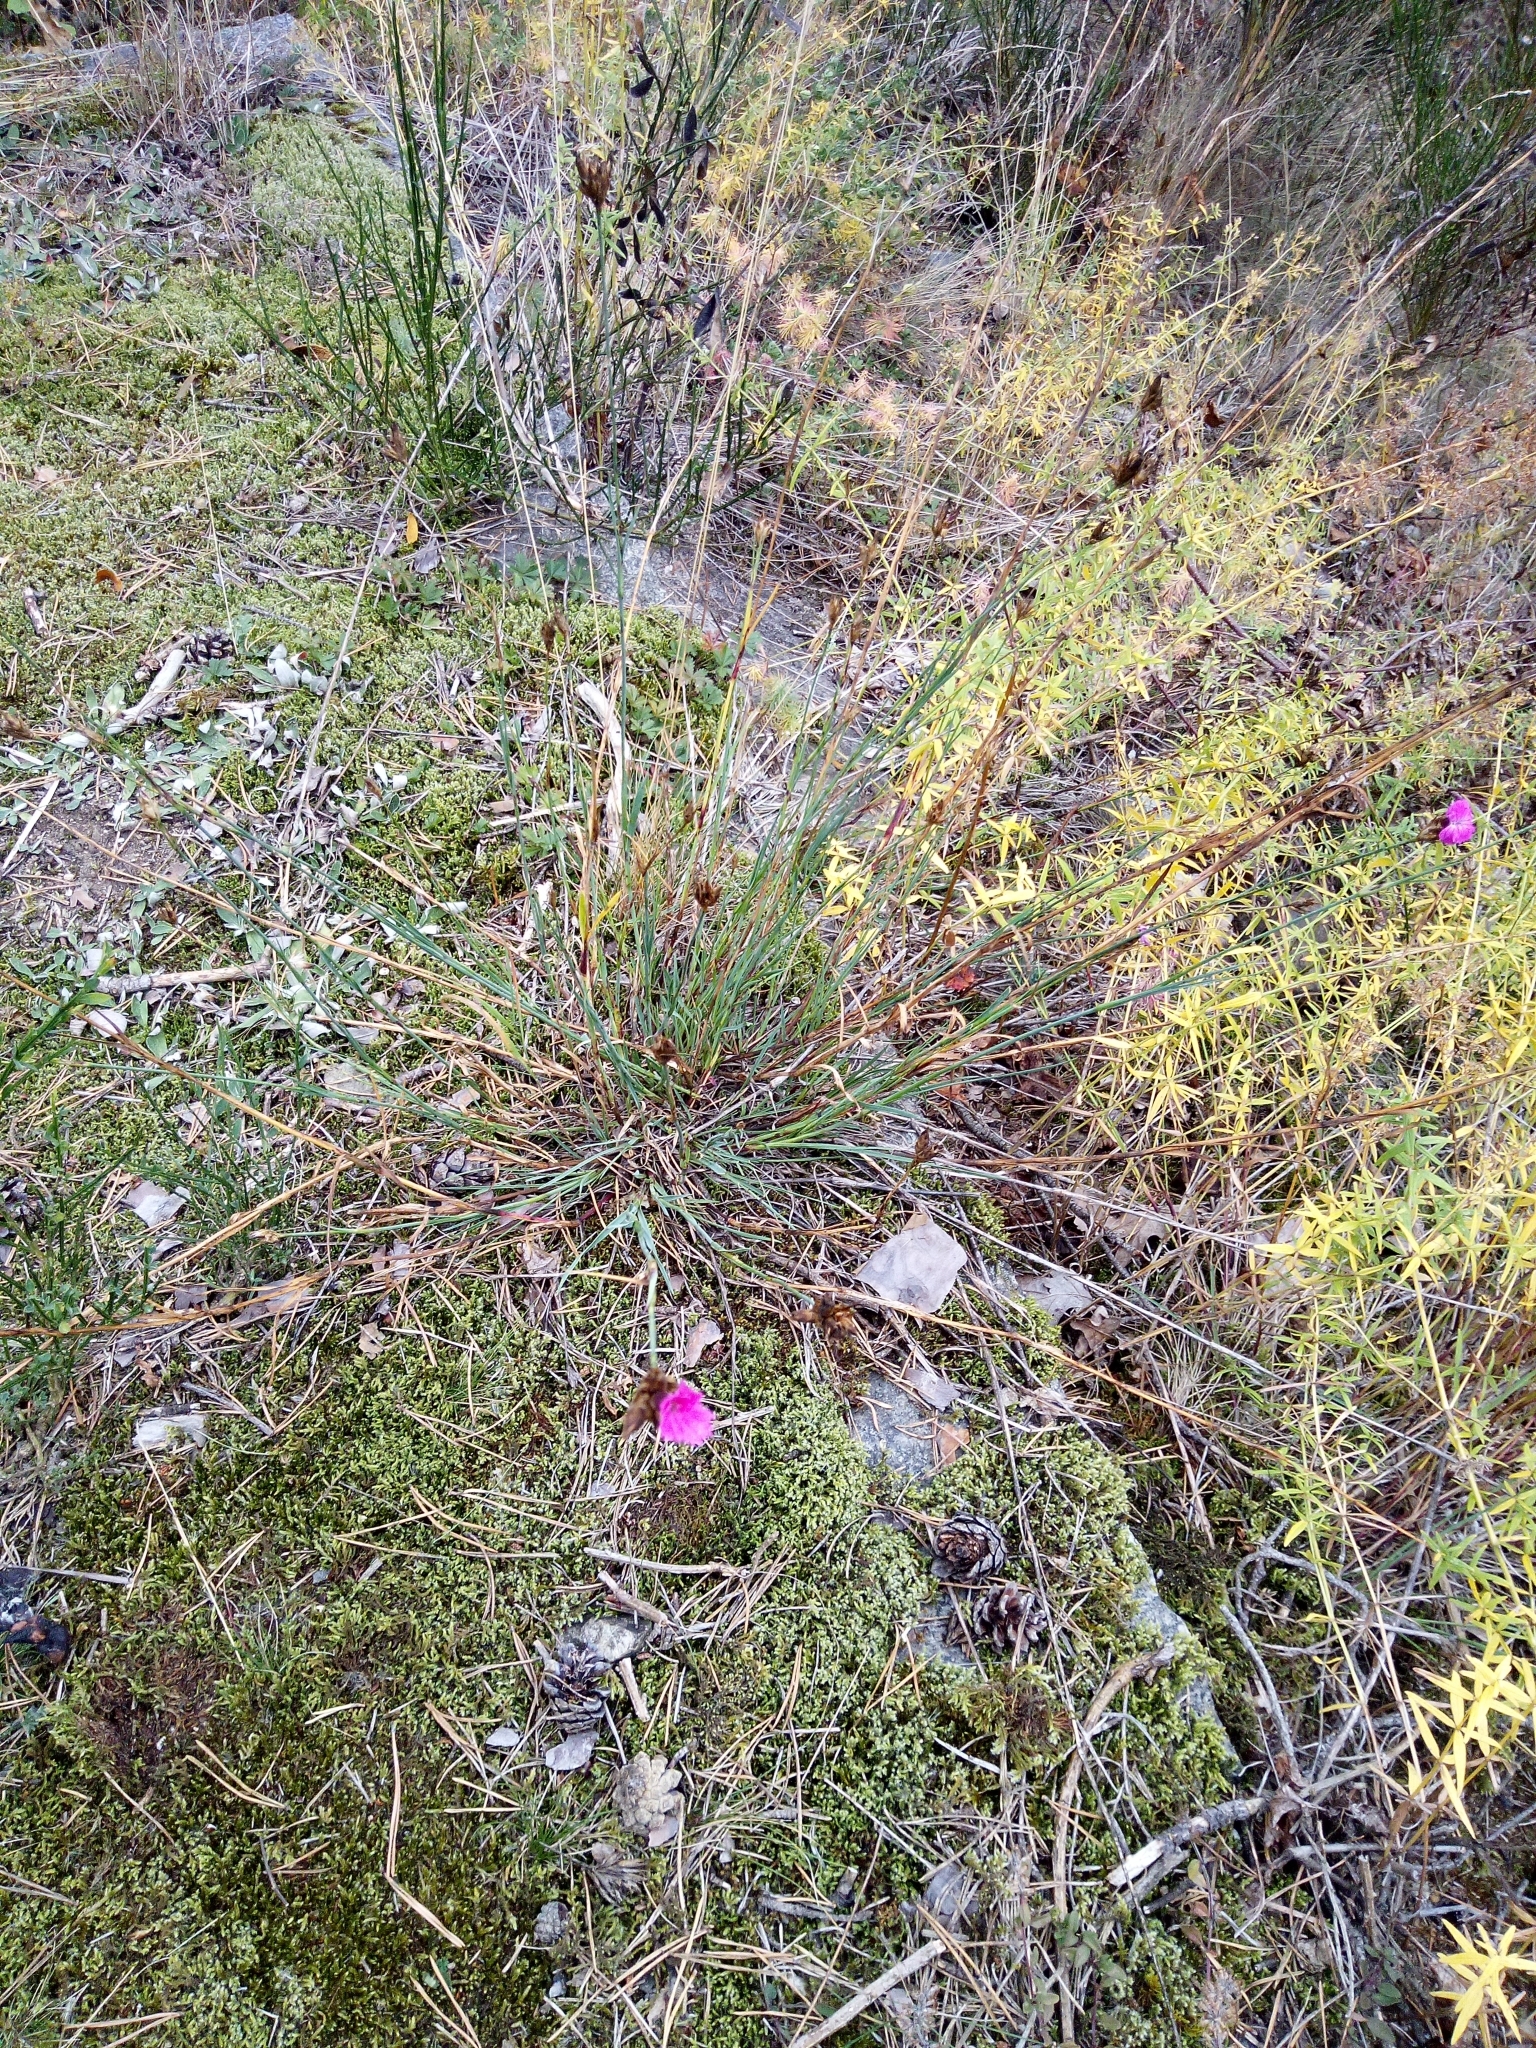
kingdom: Plantae
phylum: Tracheophyta
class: Magnoliopsida
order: Caryophyllales
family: Caryophyllaceae
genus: Dianthus
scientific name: Dianthus carthusianorum
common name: Carthusian pink
